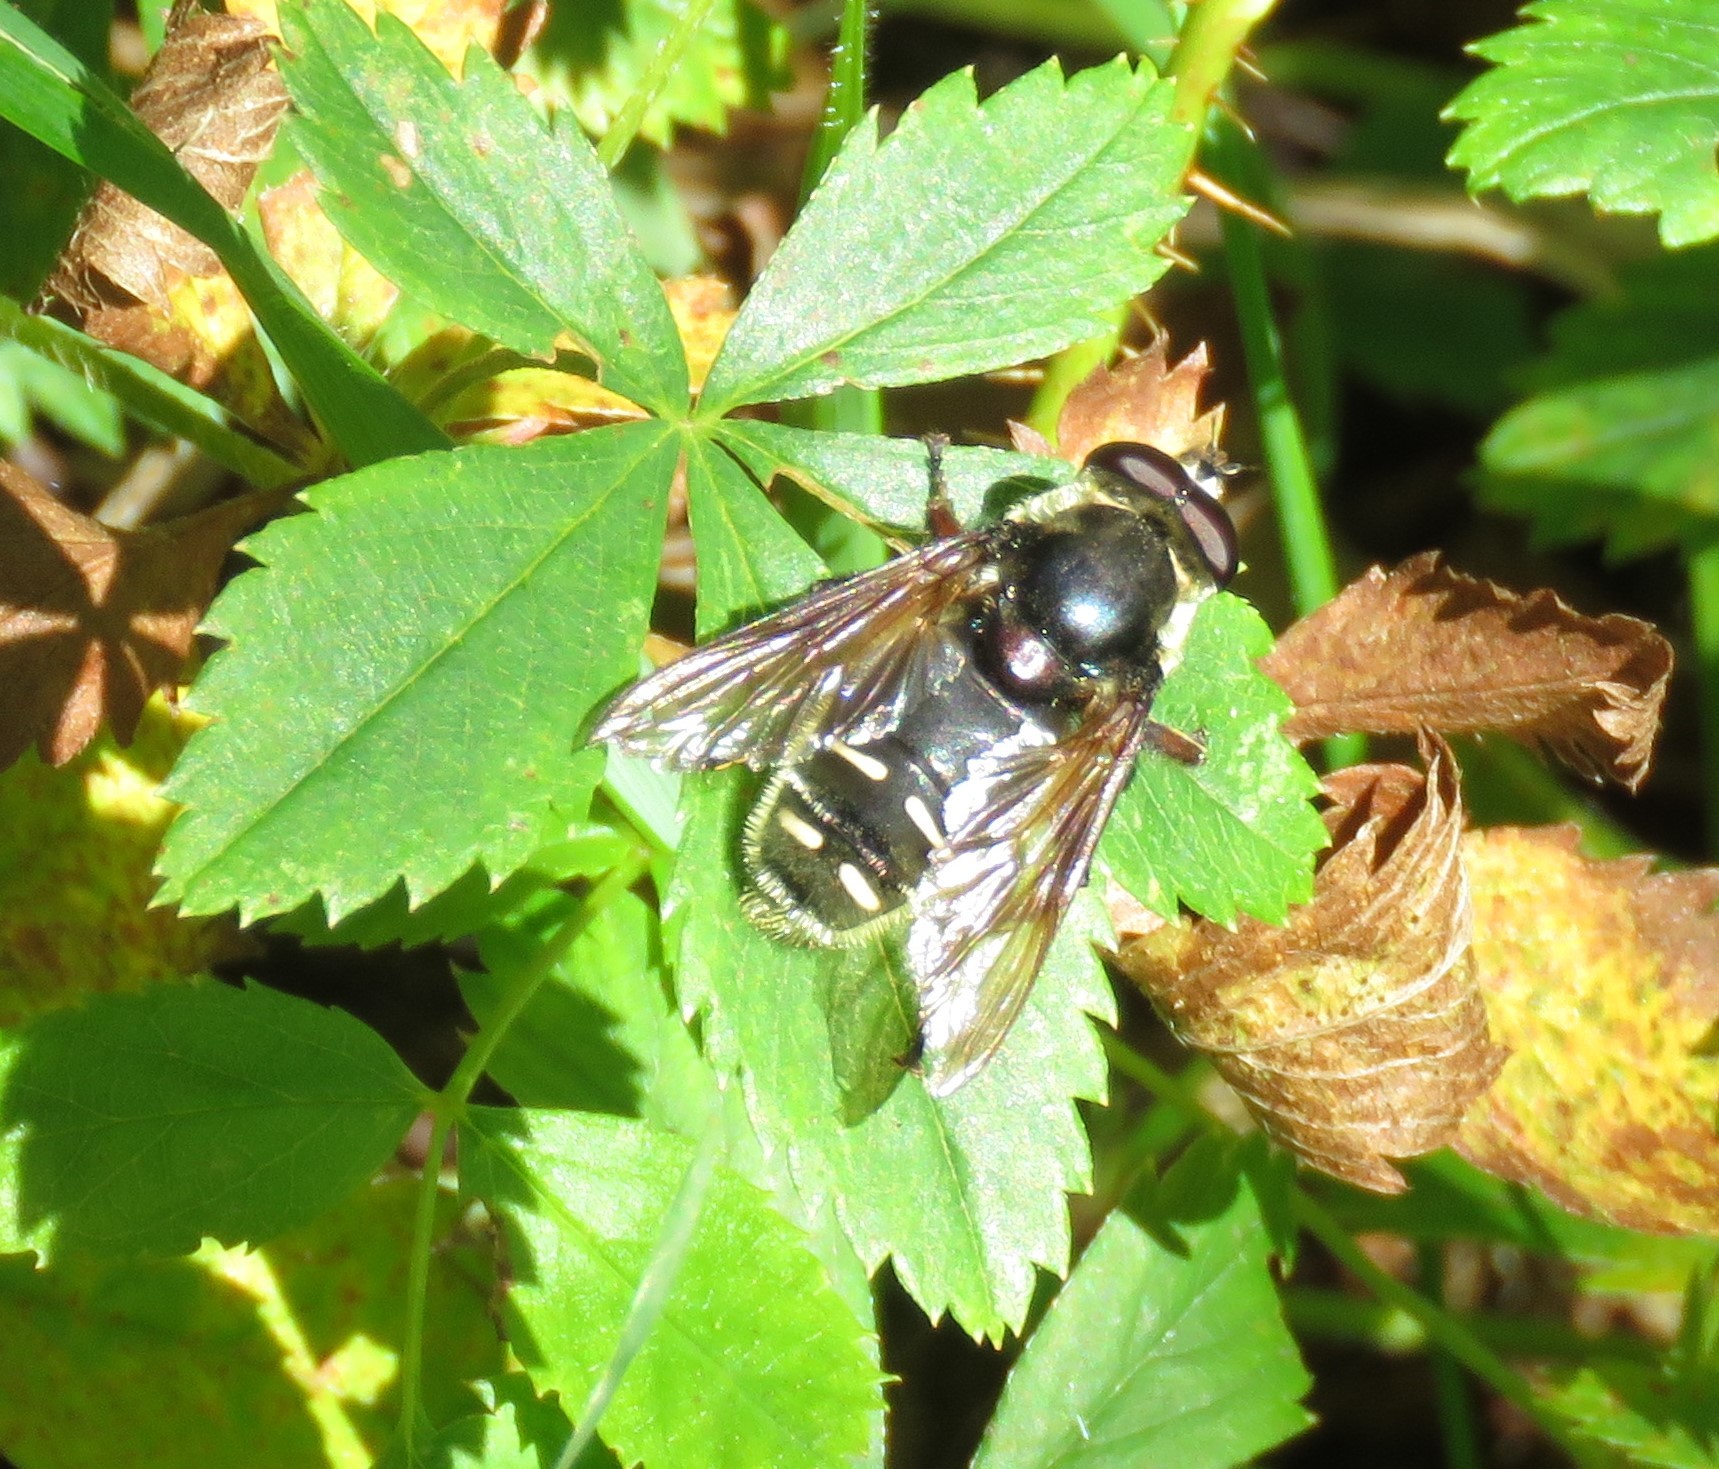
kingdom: Animalia
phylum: Arthropoda
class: Insecta
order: Diptera
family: Syrphidae
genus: Sericomyia
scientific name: Sericomyia militaris
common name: Narrow-banded pond fly
